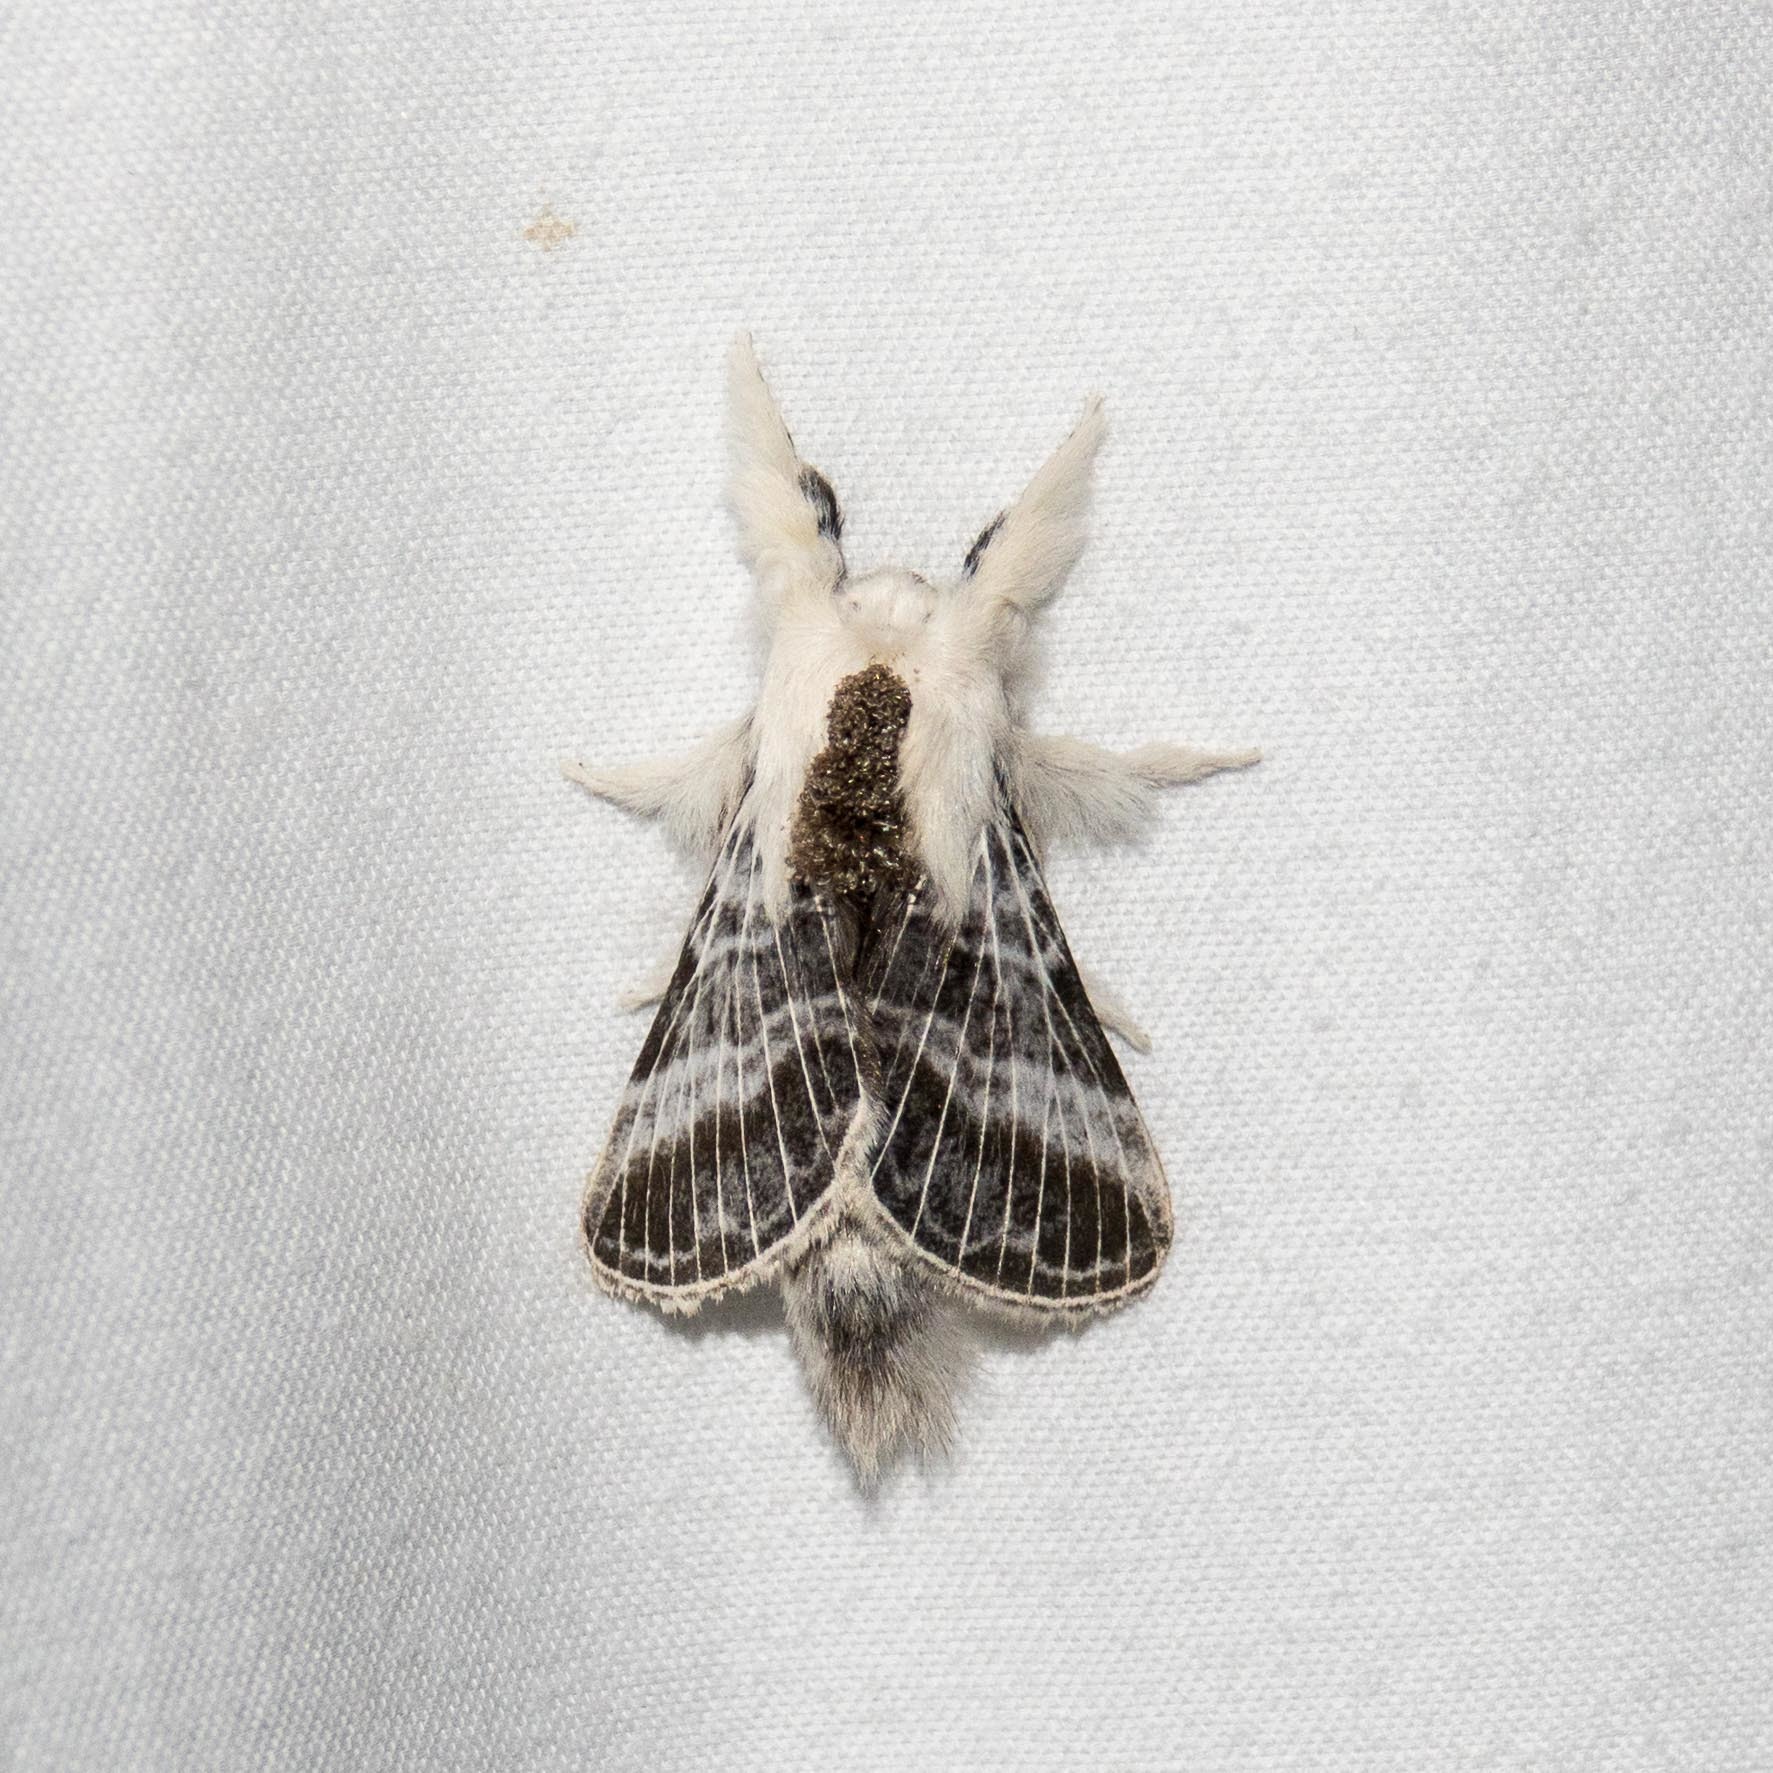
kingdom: Animalia
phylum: Arthropoda
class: Insecta
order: Lepidoptera
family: Lasiocampidae
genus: Tolype
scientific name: Tolype velleda
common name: Large tolype moth
